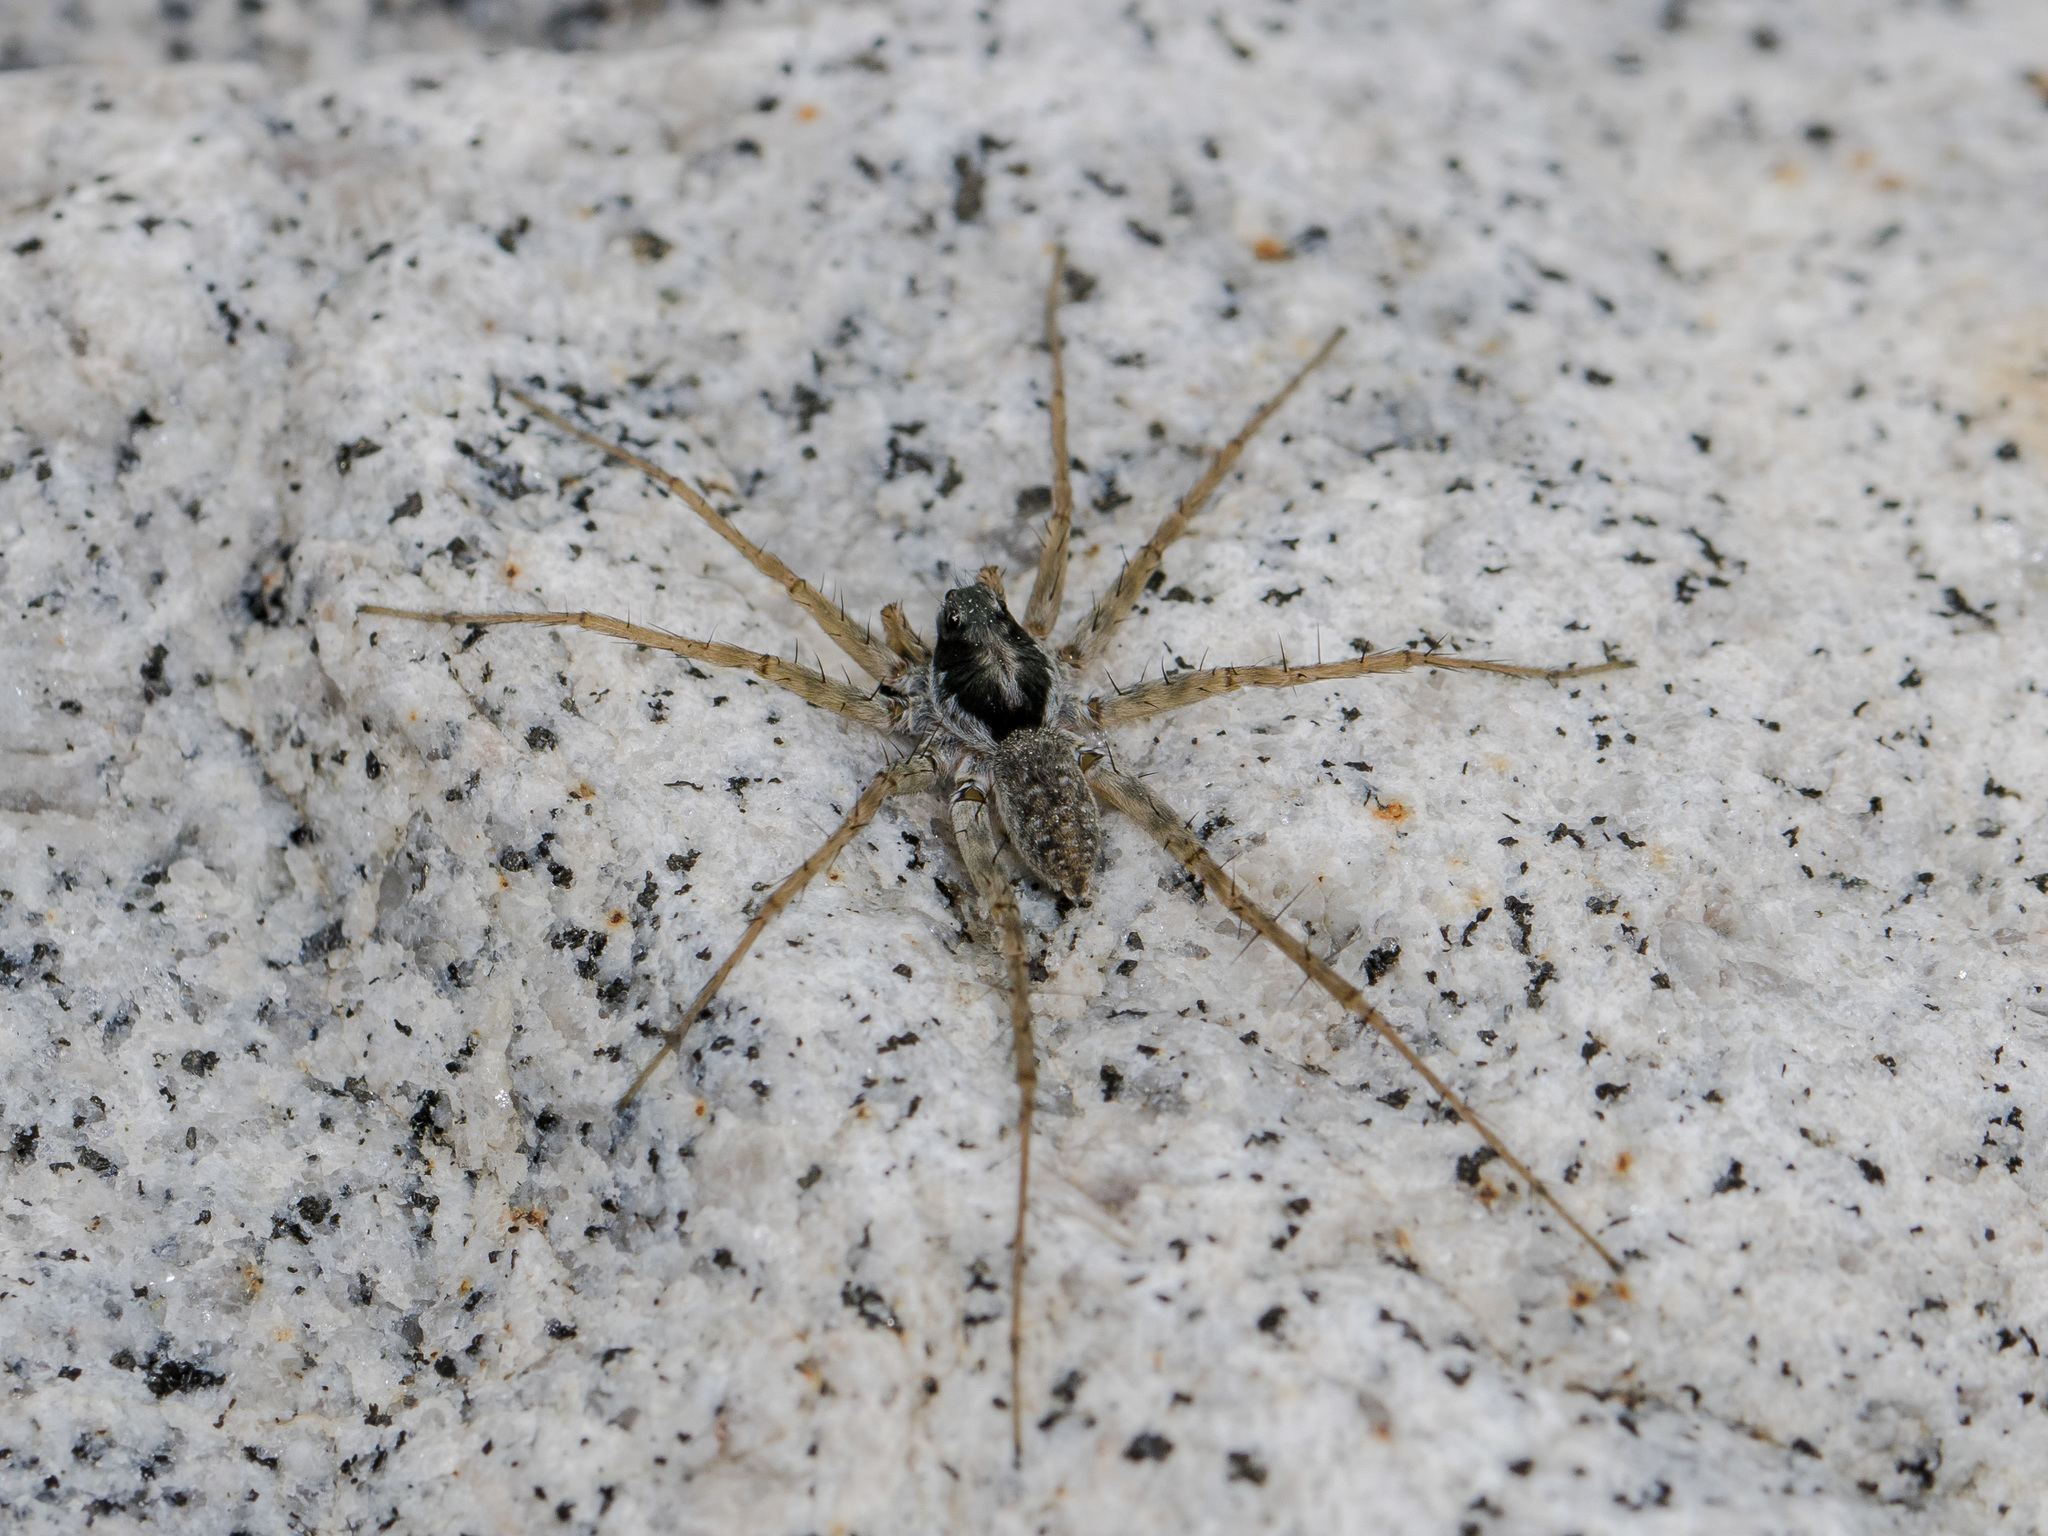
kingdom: Animalia
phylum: Arthropoda
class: Arachnida
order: Araneae
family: Lycosidae
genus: Pardosa
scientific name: Pardosa falcata
